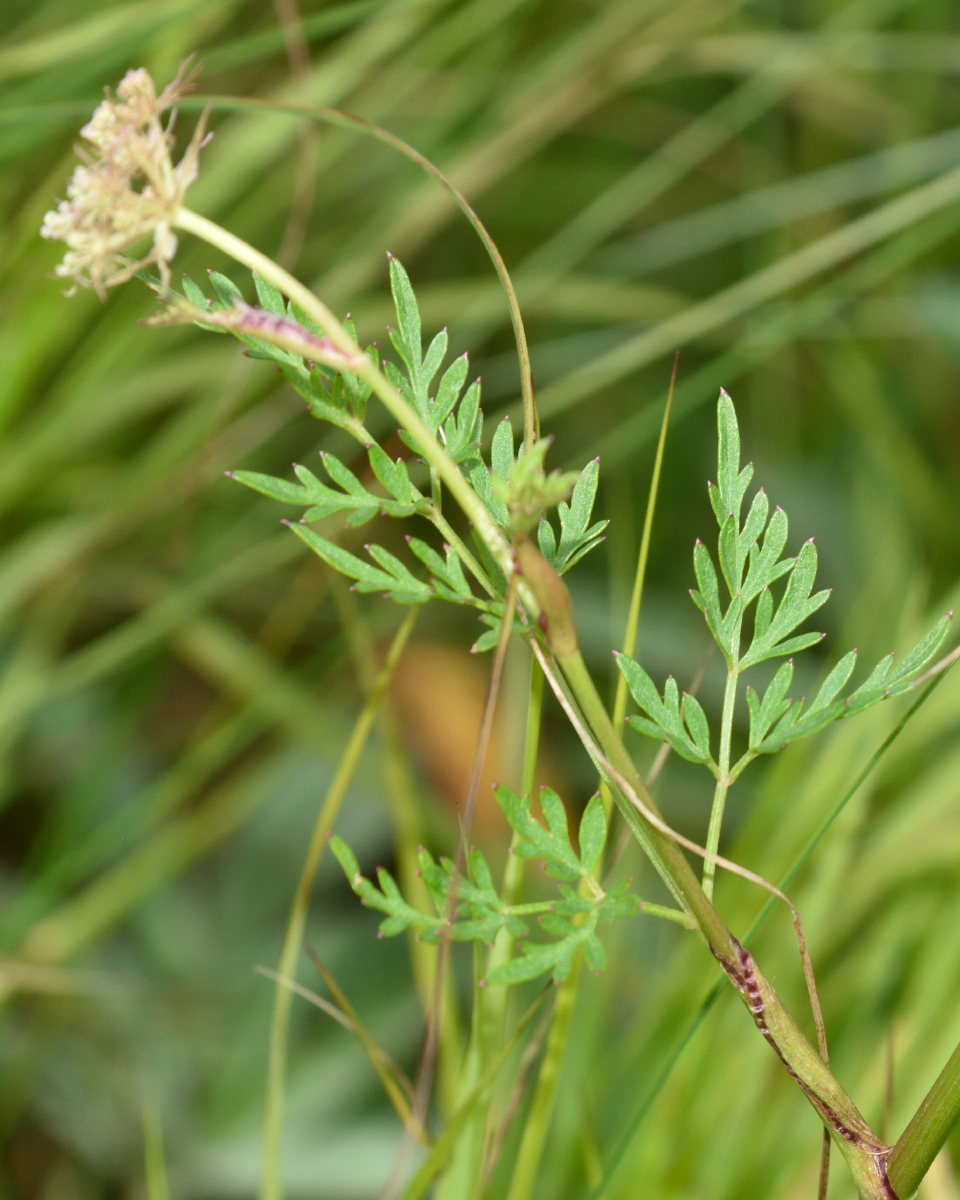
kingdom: Plantae
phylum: Tracheophyta
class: Magnoliopsida
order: Apiales
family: Apiaceae
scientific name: Apiaceae
